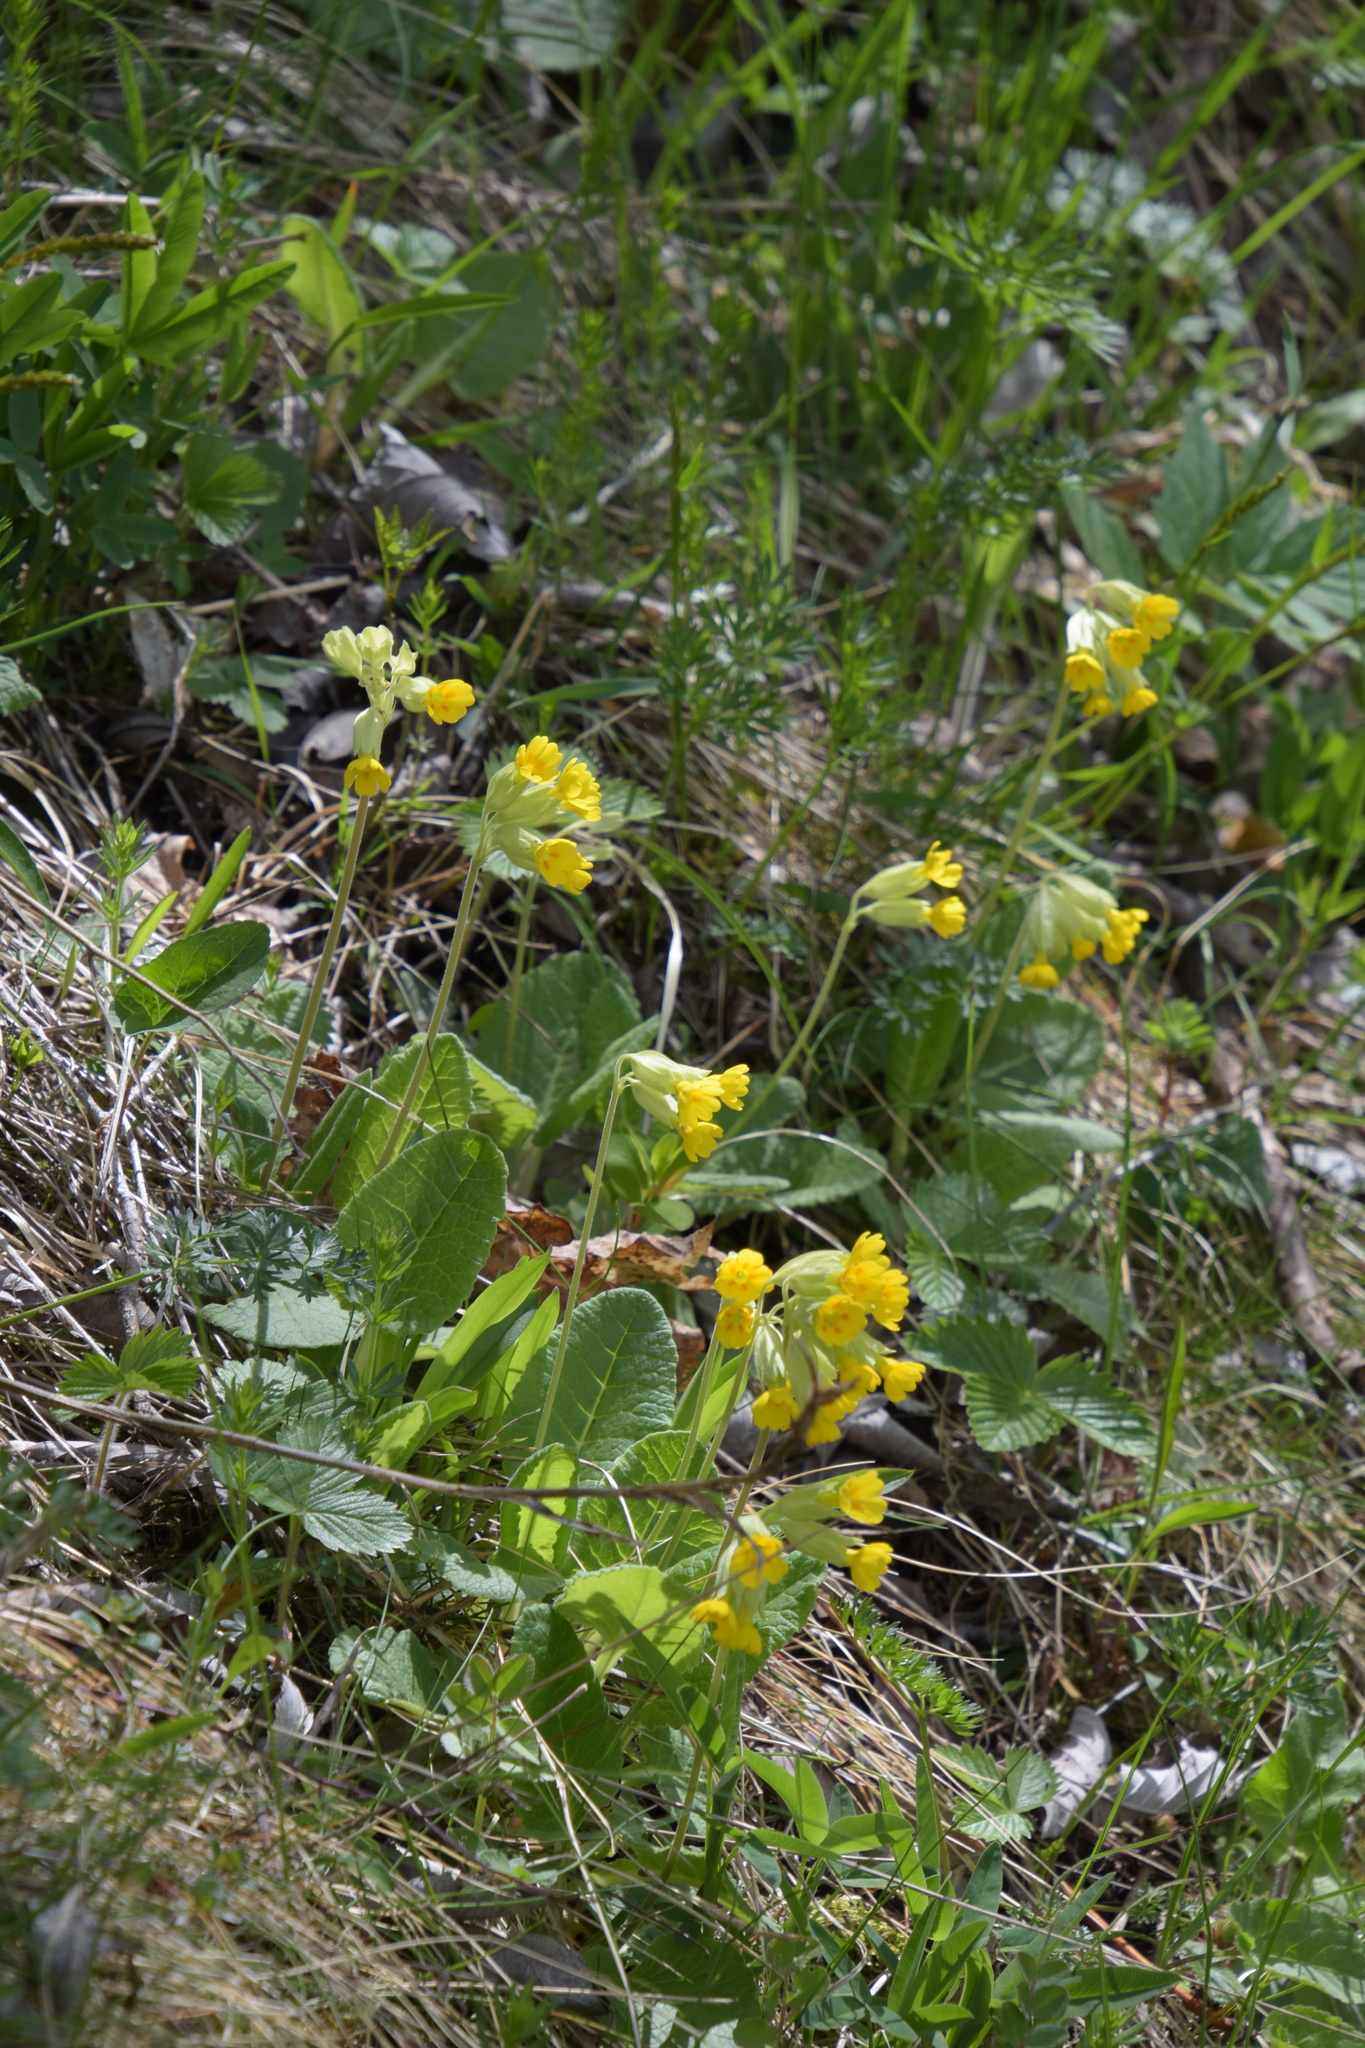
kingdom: Plantae
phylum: Tracheophyta
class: Magnoliopsida
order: Ericales
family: Primulaceae
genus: Primula
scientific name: Primula veris
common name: Cowslip
